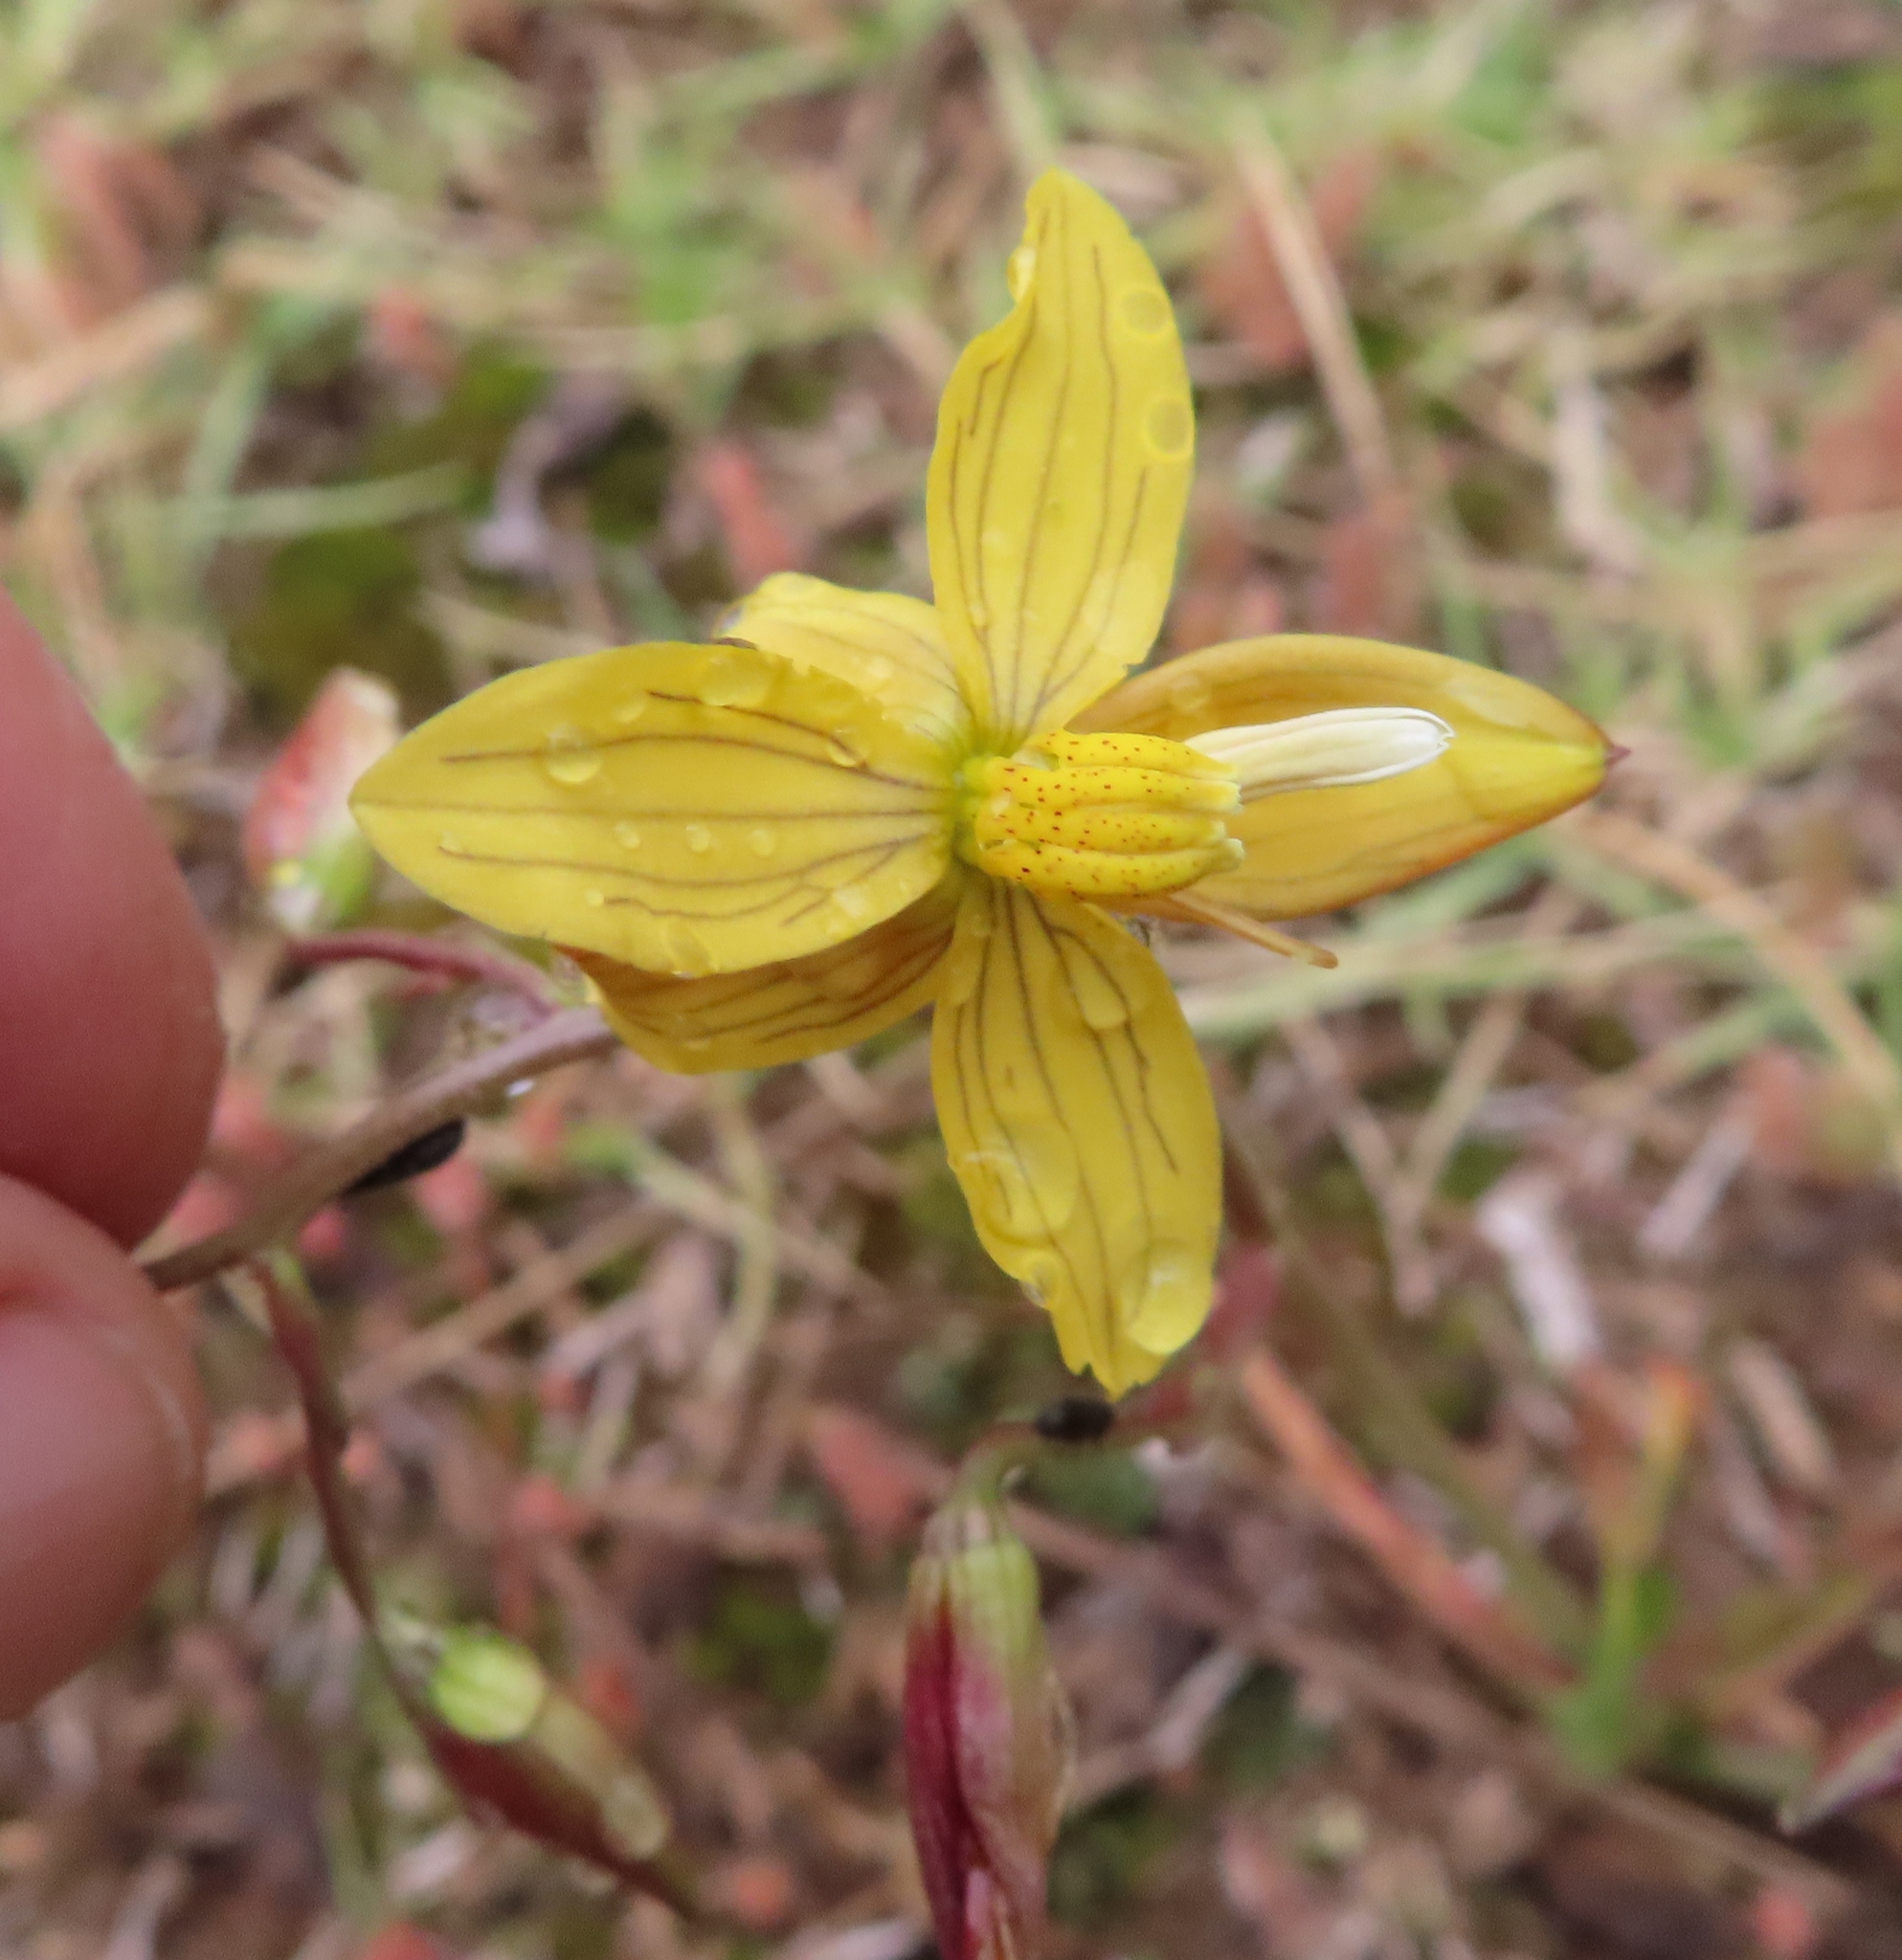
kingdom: Plantae
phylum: Tracheophyta
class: Liliopsida
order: Asparagales
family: Tecophilaeaceae
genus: Cyanella
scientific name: Cyanella lutea
